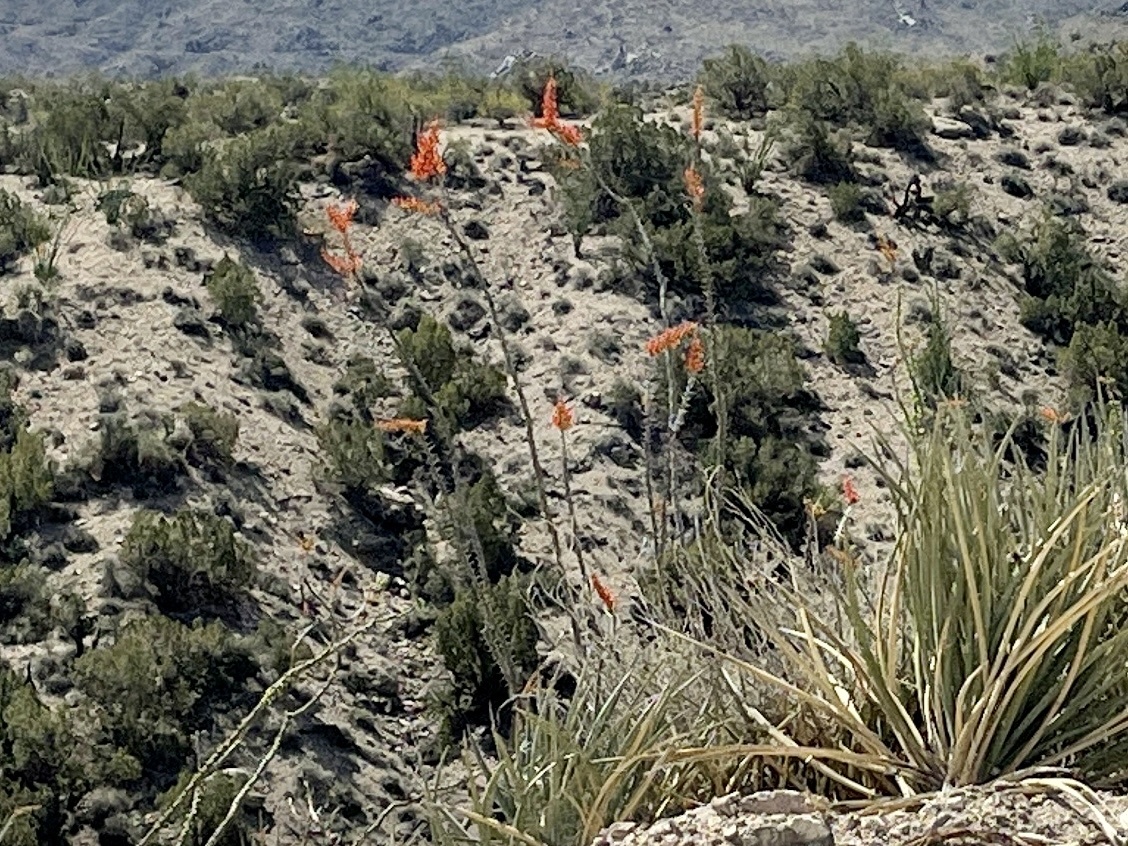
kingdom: Plantae
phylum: Tracheophyta
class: Magnoliopsida
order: Ericales
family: Fouquieriaceae
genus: Fouquieria
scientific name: Fouquieria splendens
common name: Vine-cactus
